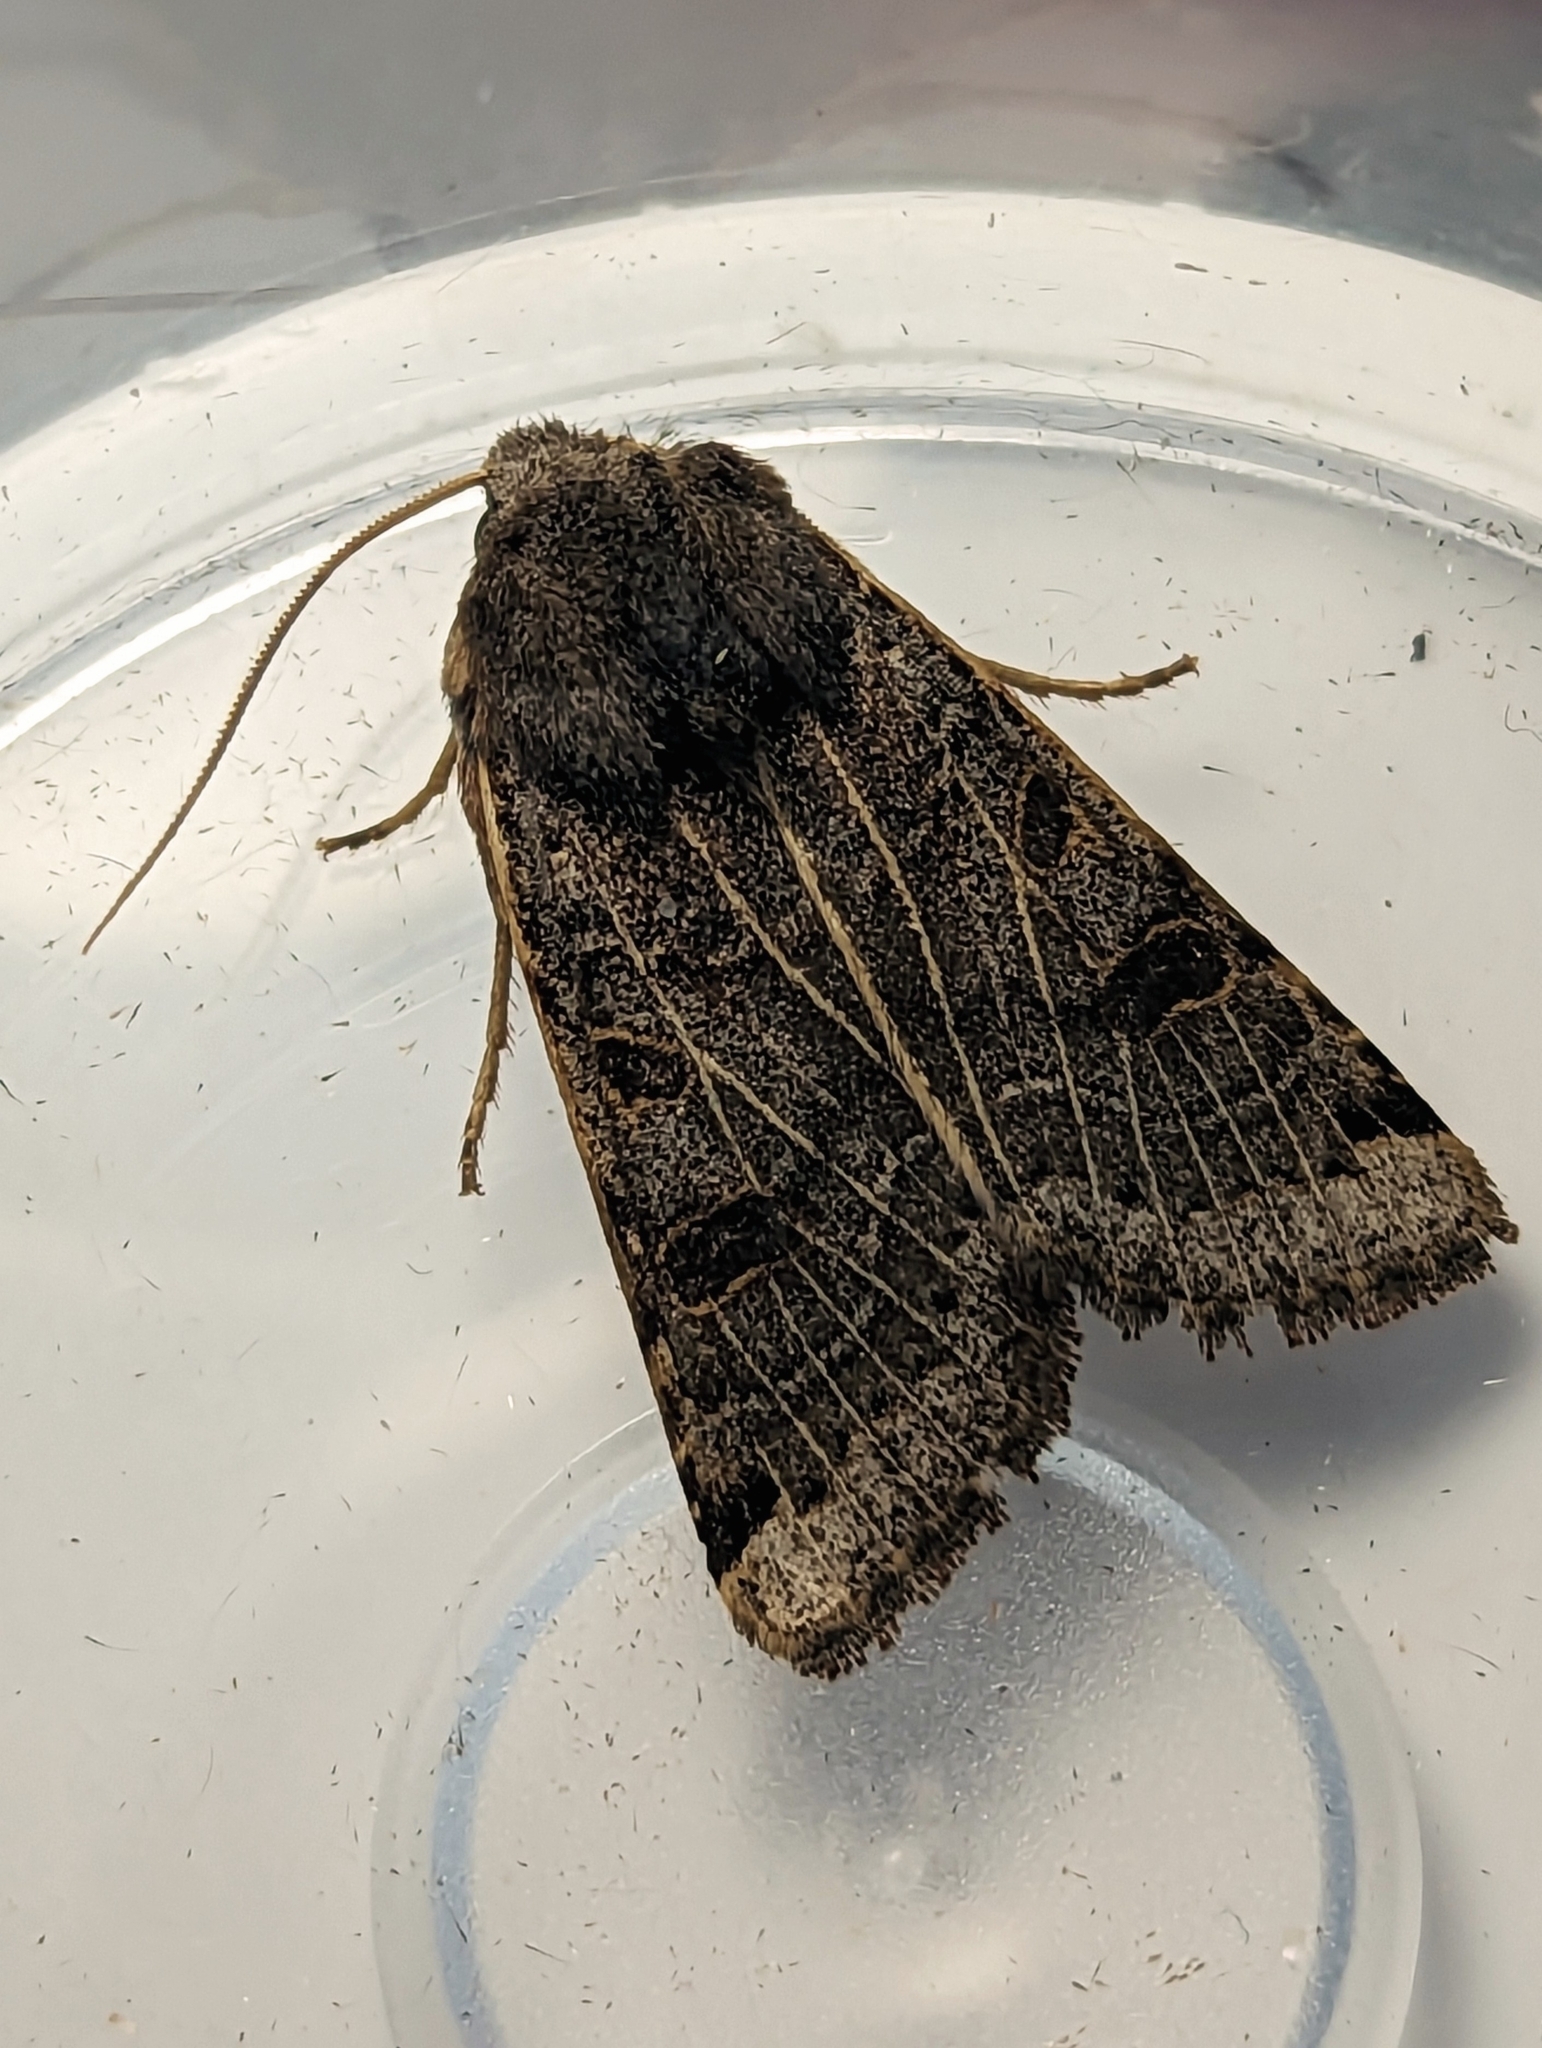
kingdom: Animalia
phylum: Arthropoda
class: Insecta
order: Lepidoptera
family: Noctuidae
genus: Agrochola
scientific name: Agrochola lunosa
